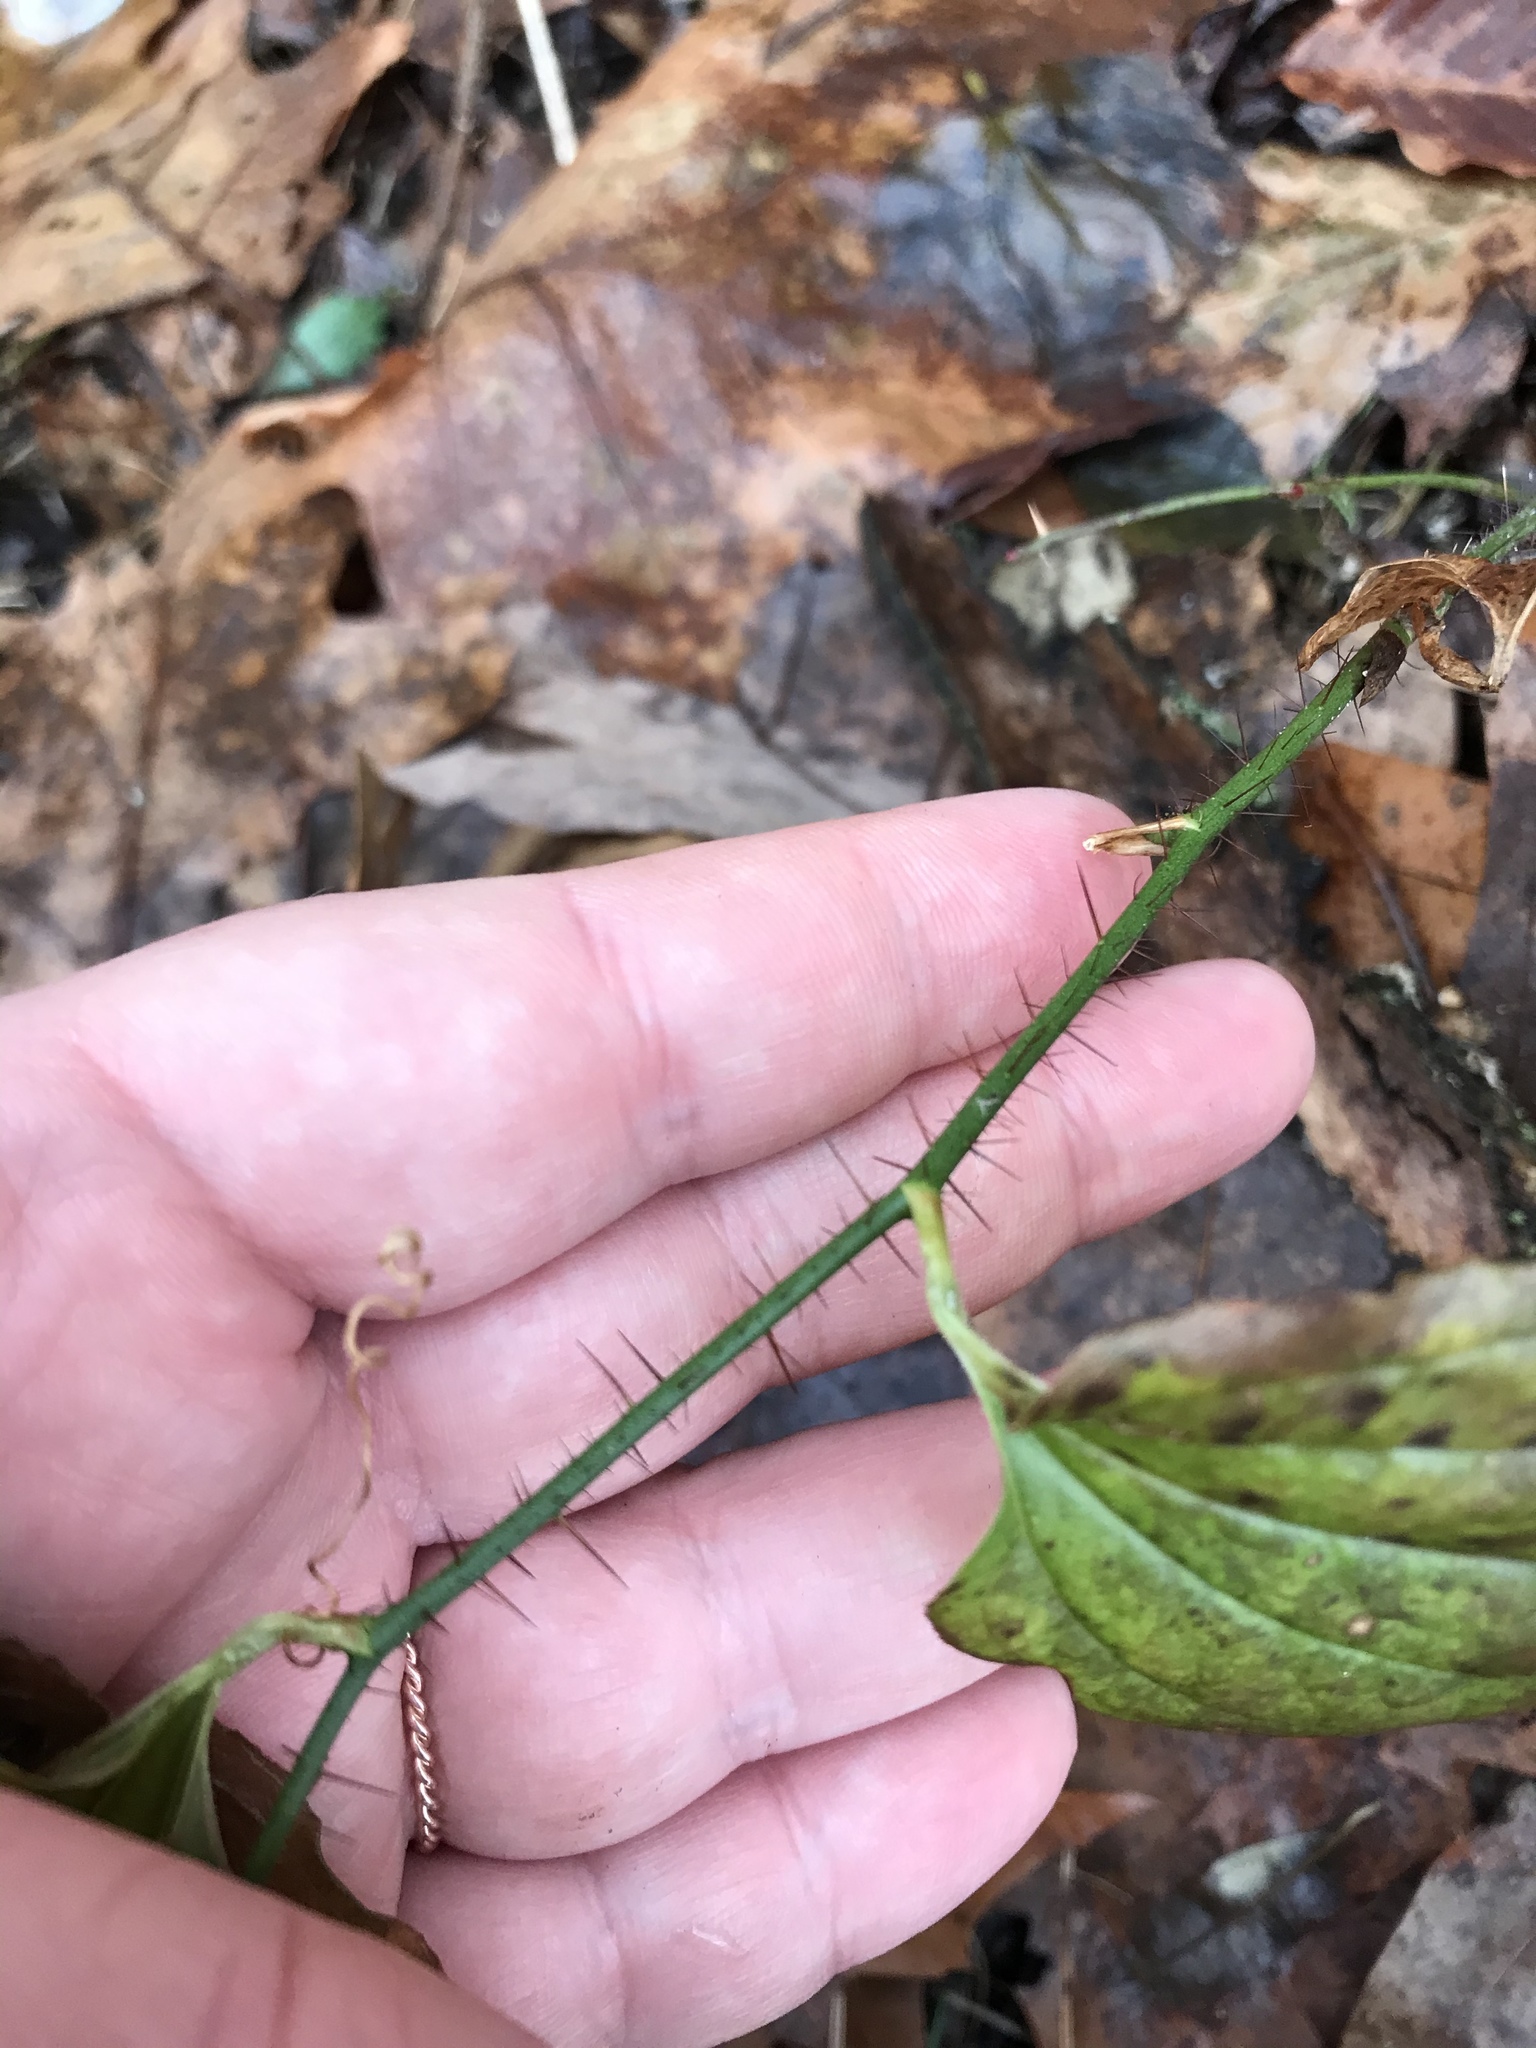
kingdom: Plantae
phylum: Tracheophyta
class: Liliopsida
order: Liliales
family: Smilacaceae
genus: Smilax
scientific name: Smilax tamnoides
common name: Hellfetter
